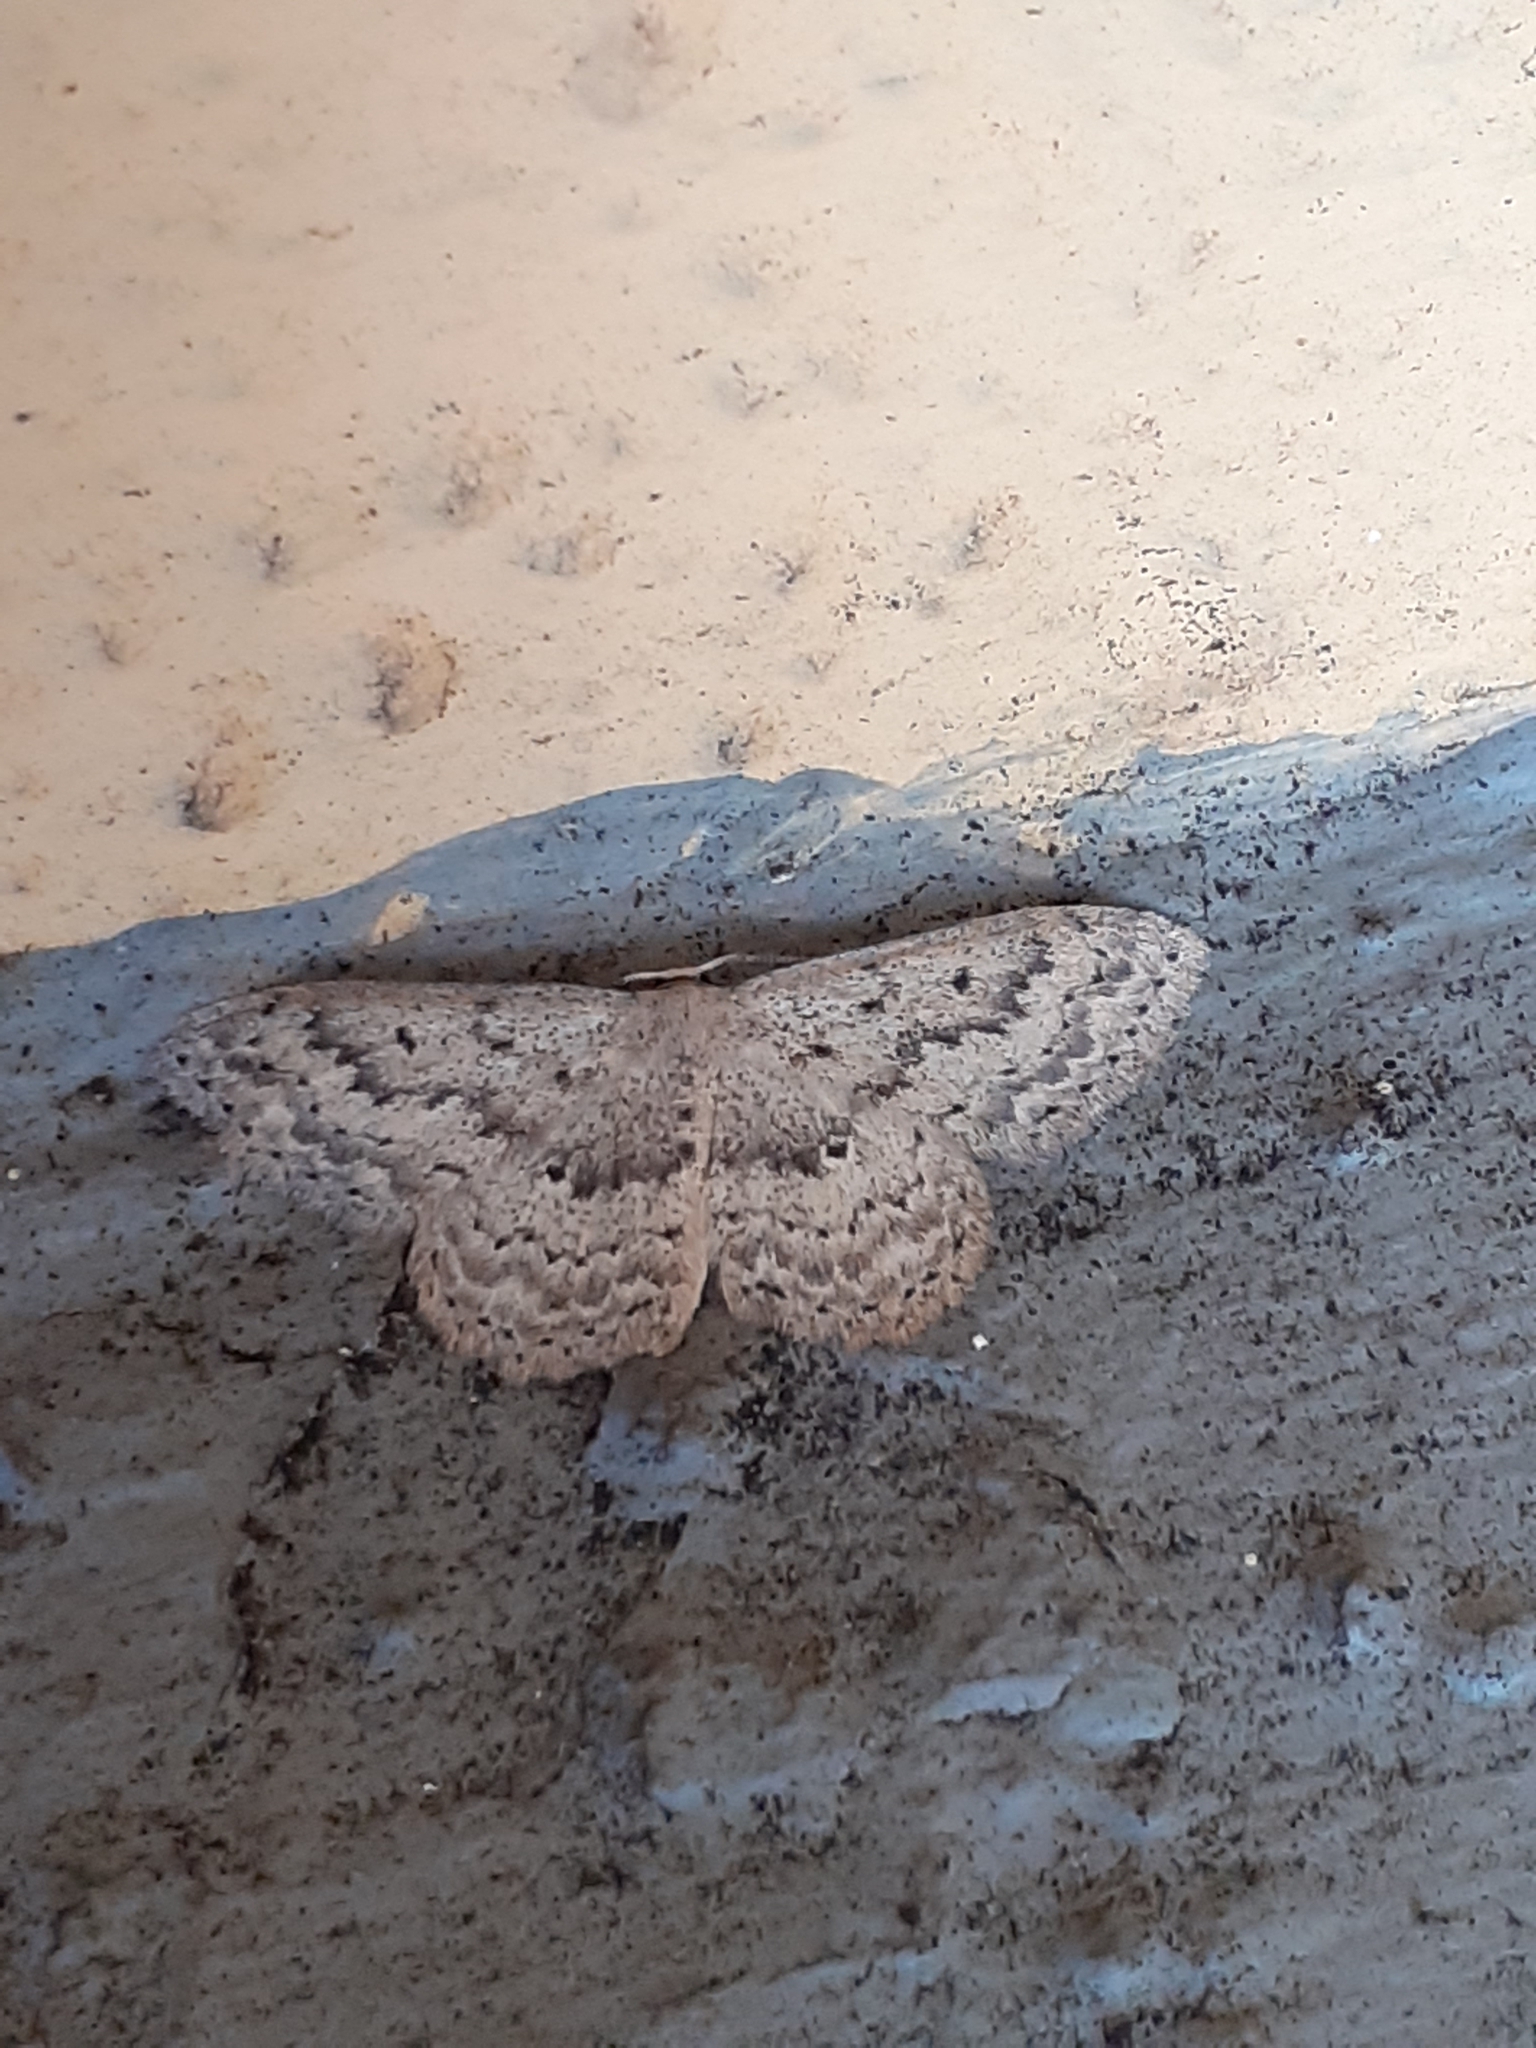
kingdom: Animalia
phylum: Arthropoda
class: Insecta
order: Lepidoptera
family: Geometridae
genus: Scopula
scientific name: Scopula guancharia
